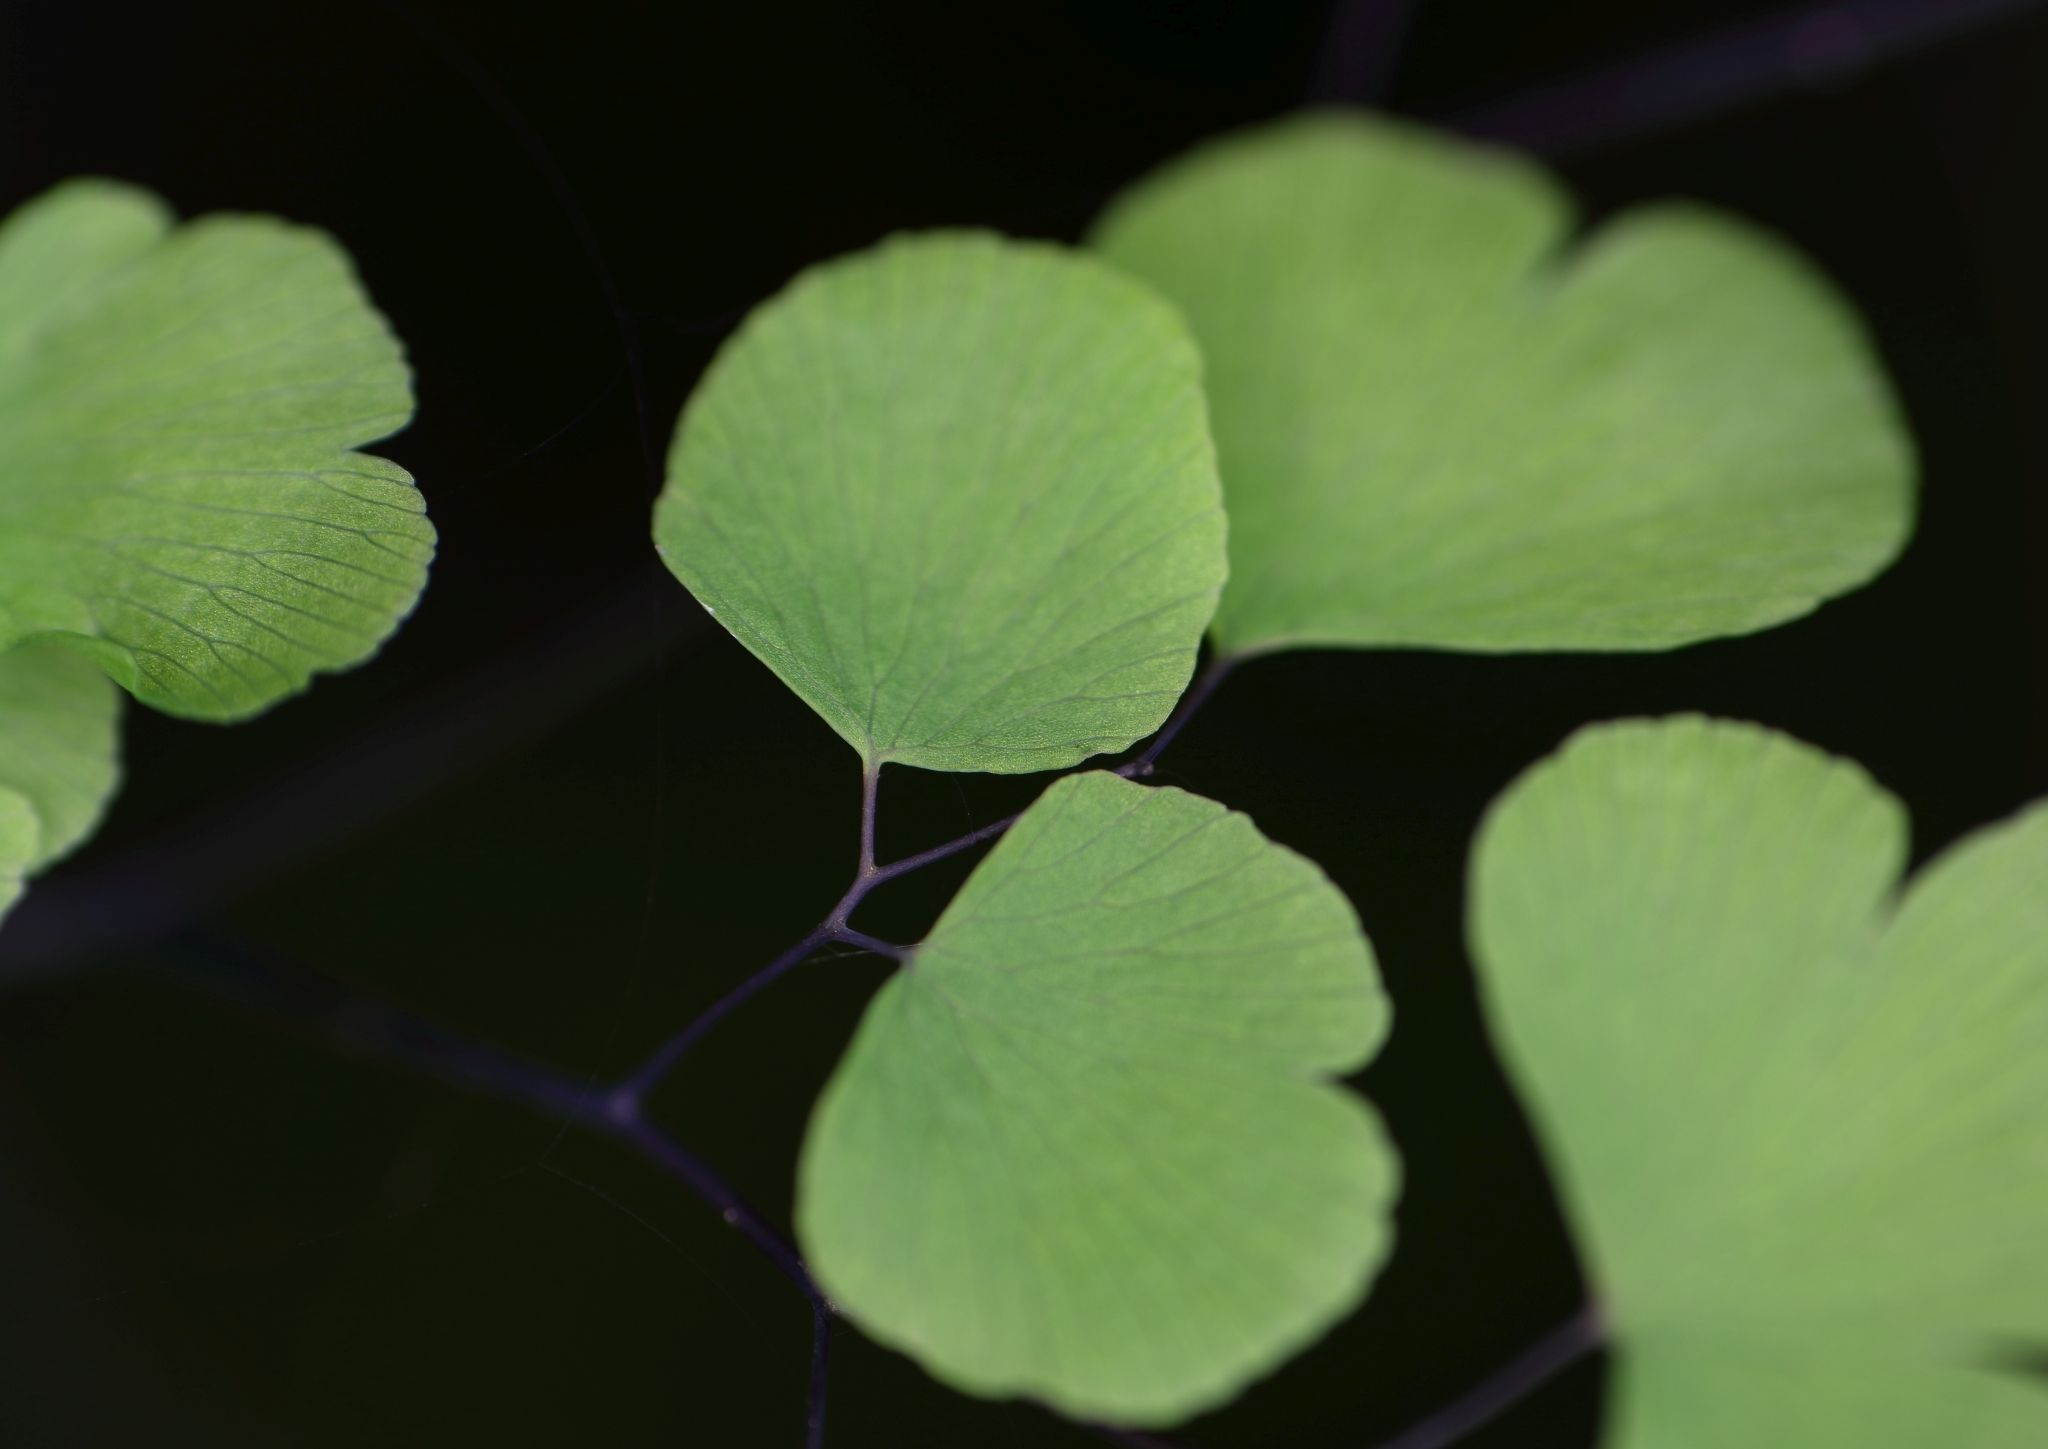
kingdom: Plantae
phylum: Tracheophyta
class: Polypodiopsida
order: Polypodiales
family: Pteridaceae
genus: Adiantum
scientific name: Adiantum poiretii
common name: Mexican maidenhair
